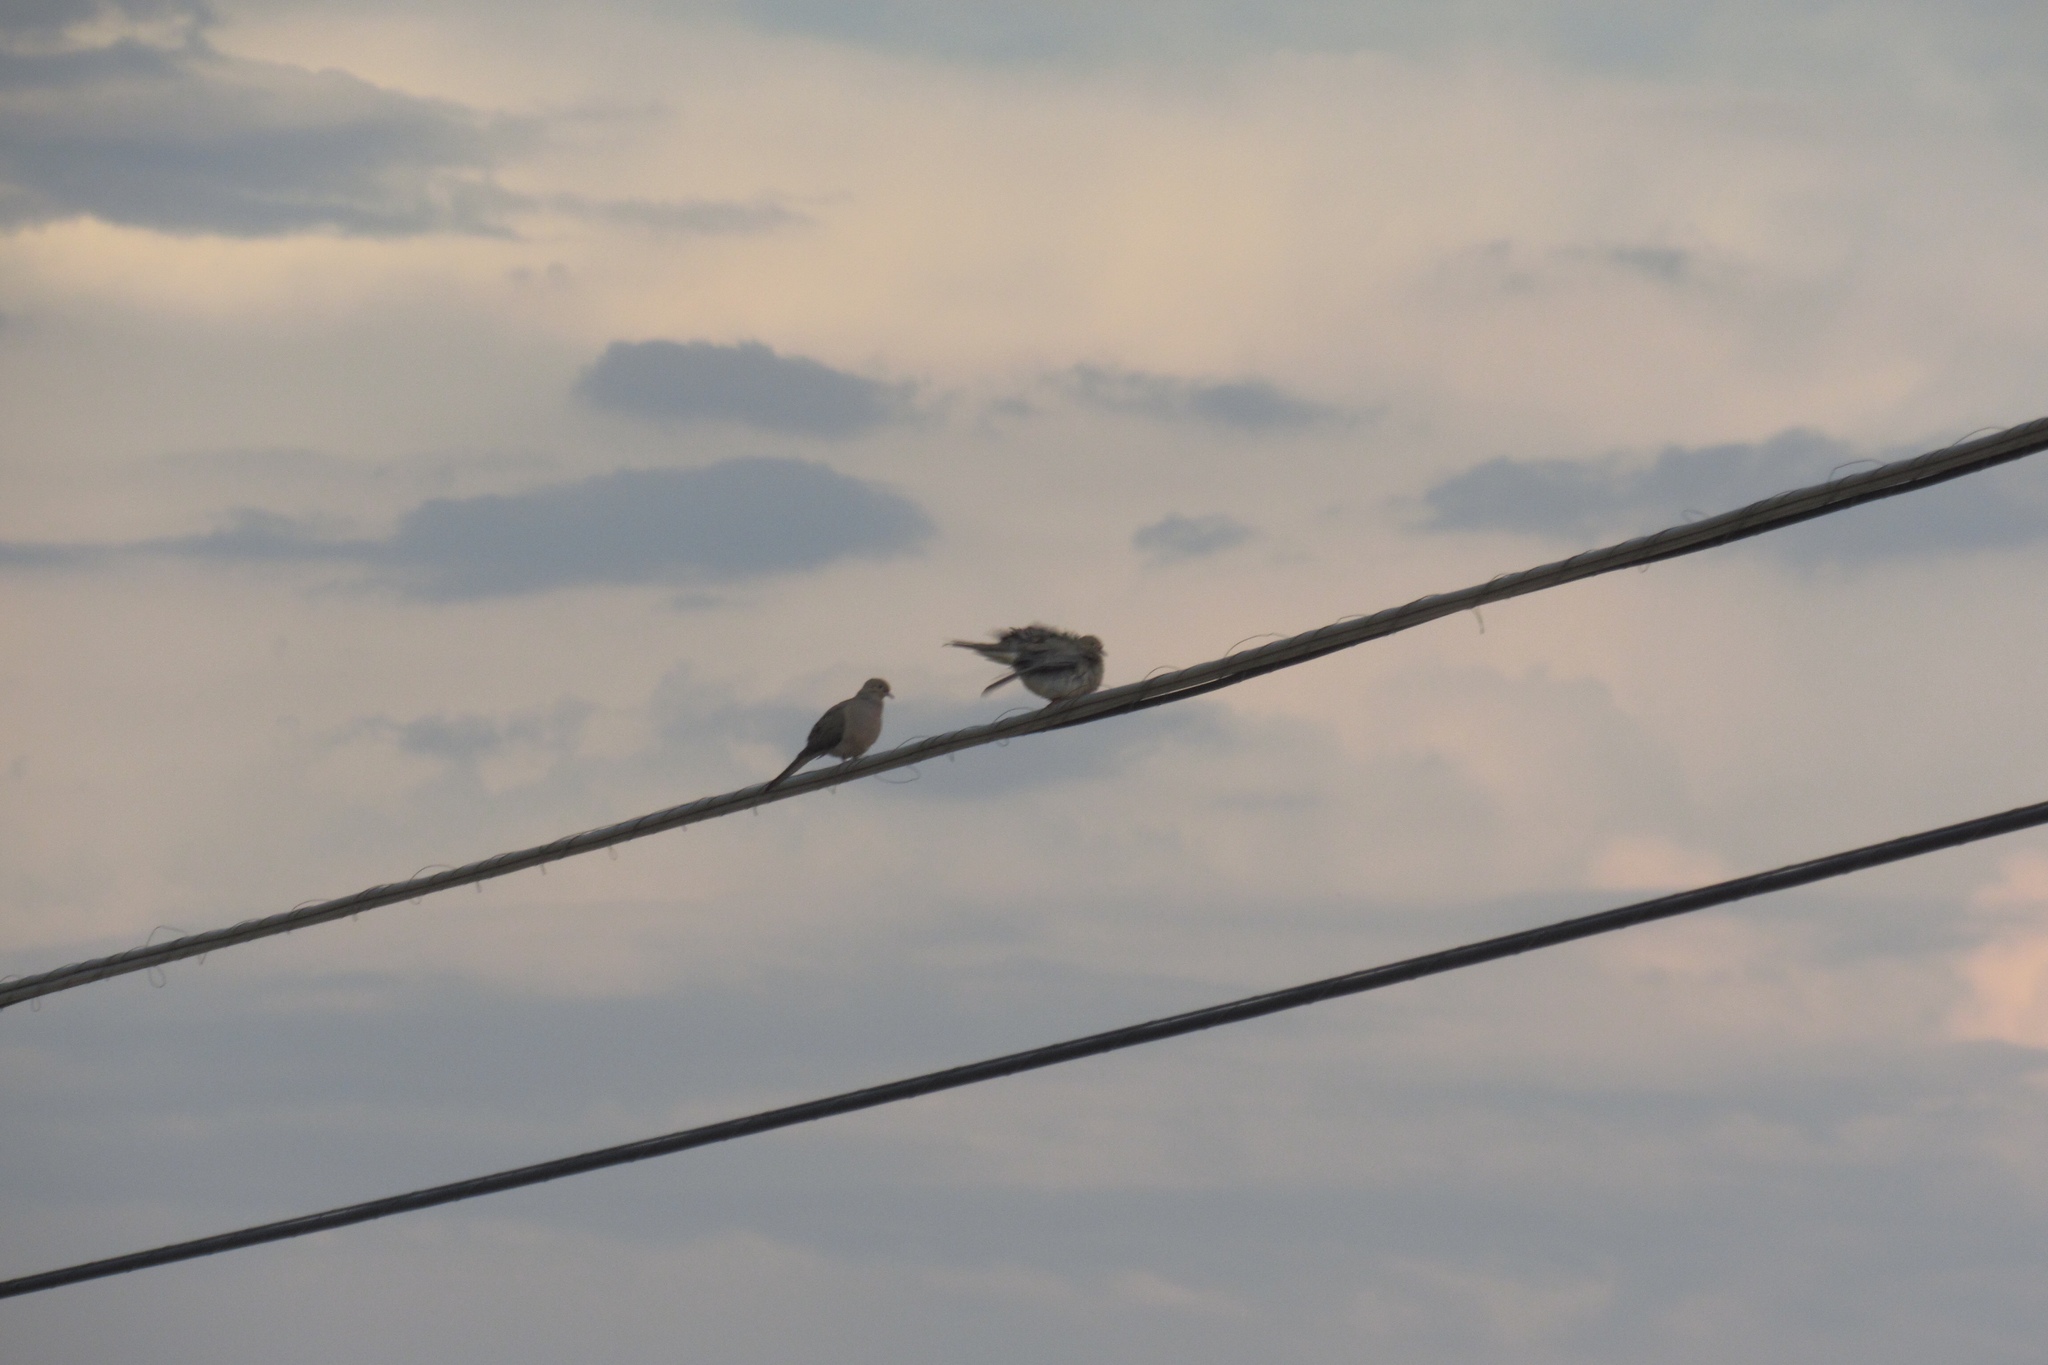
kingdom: Animalia
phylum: Chordata
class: Aves
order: Columbiformes
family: Columbidae
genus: Zenaida
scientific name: Zenaida macroura
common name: Mourning dove
